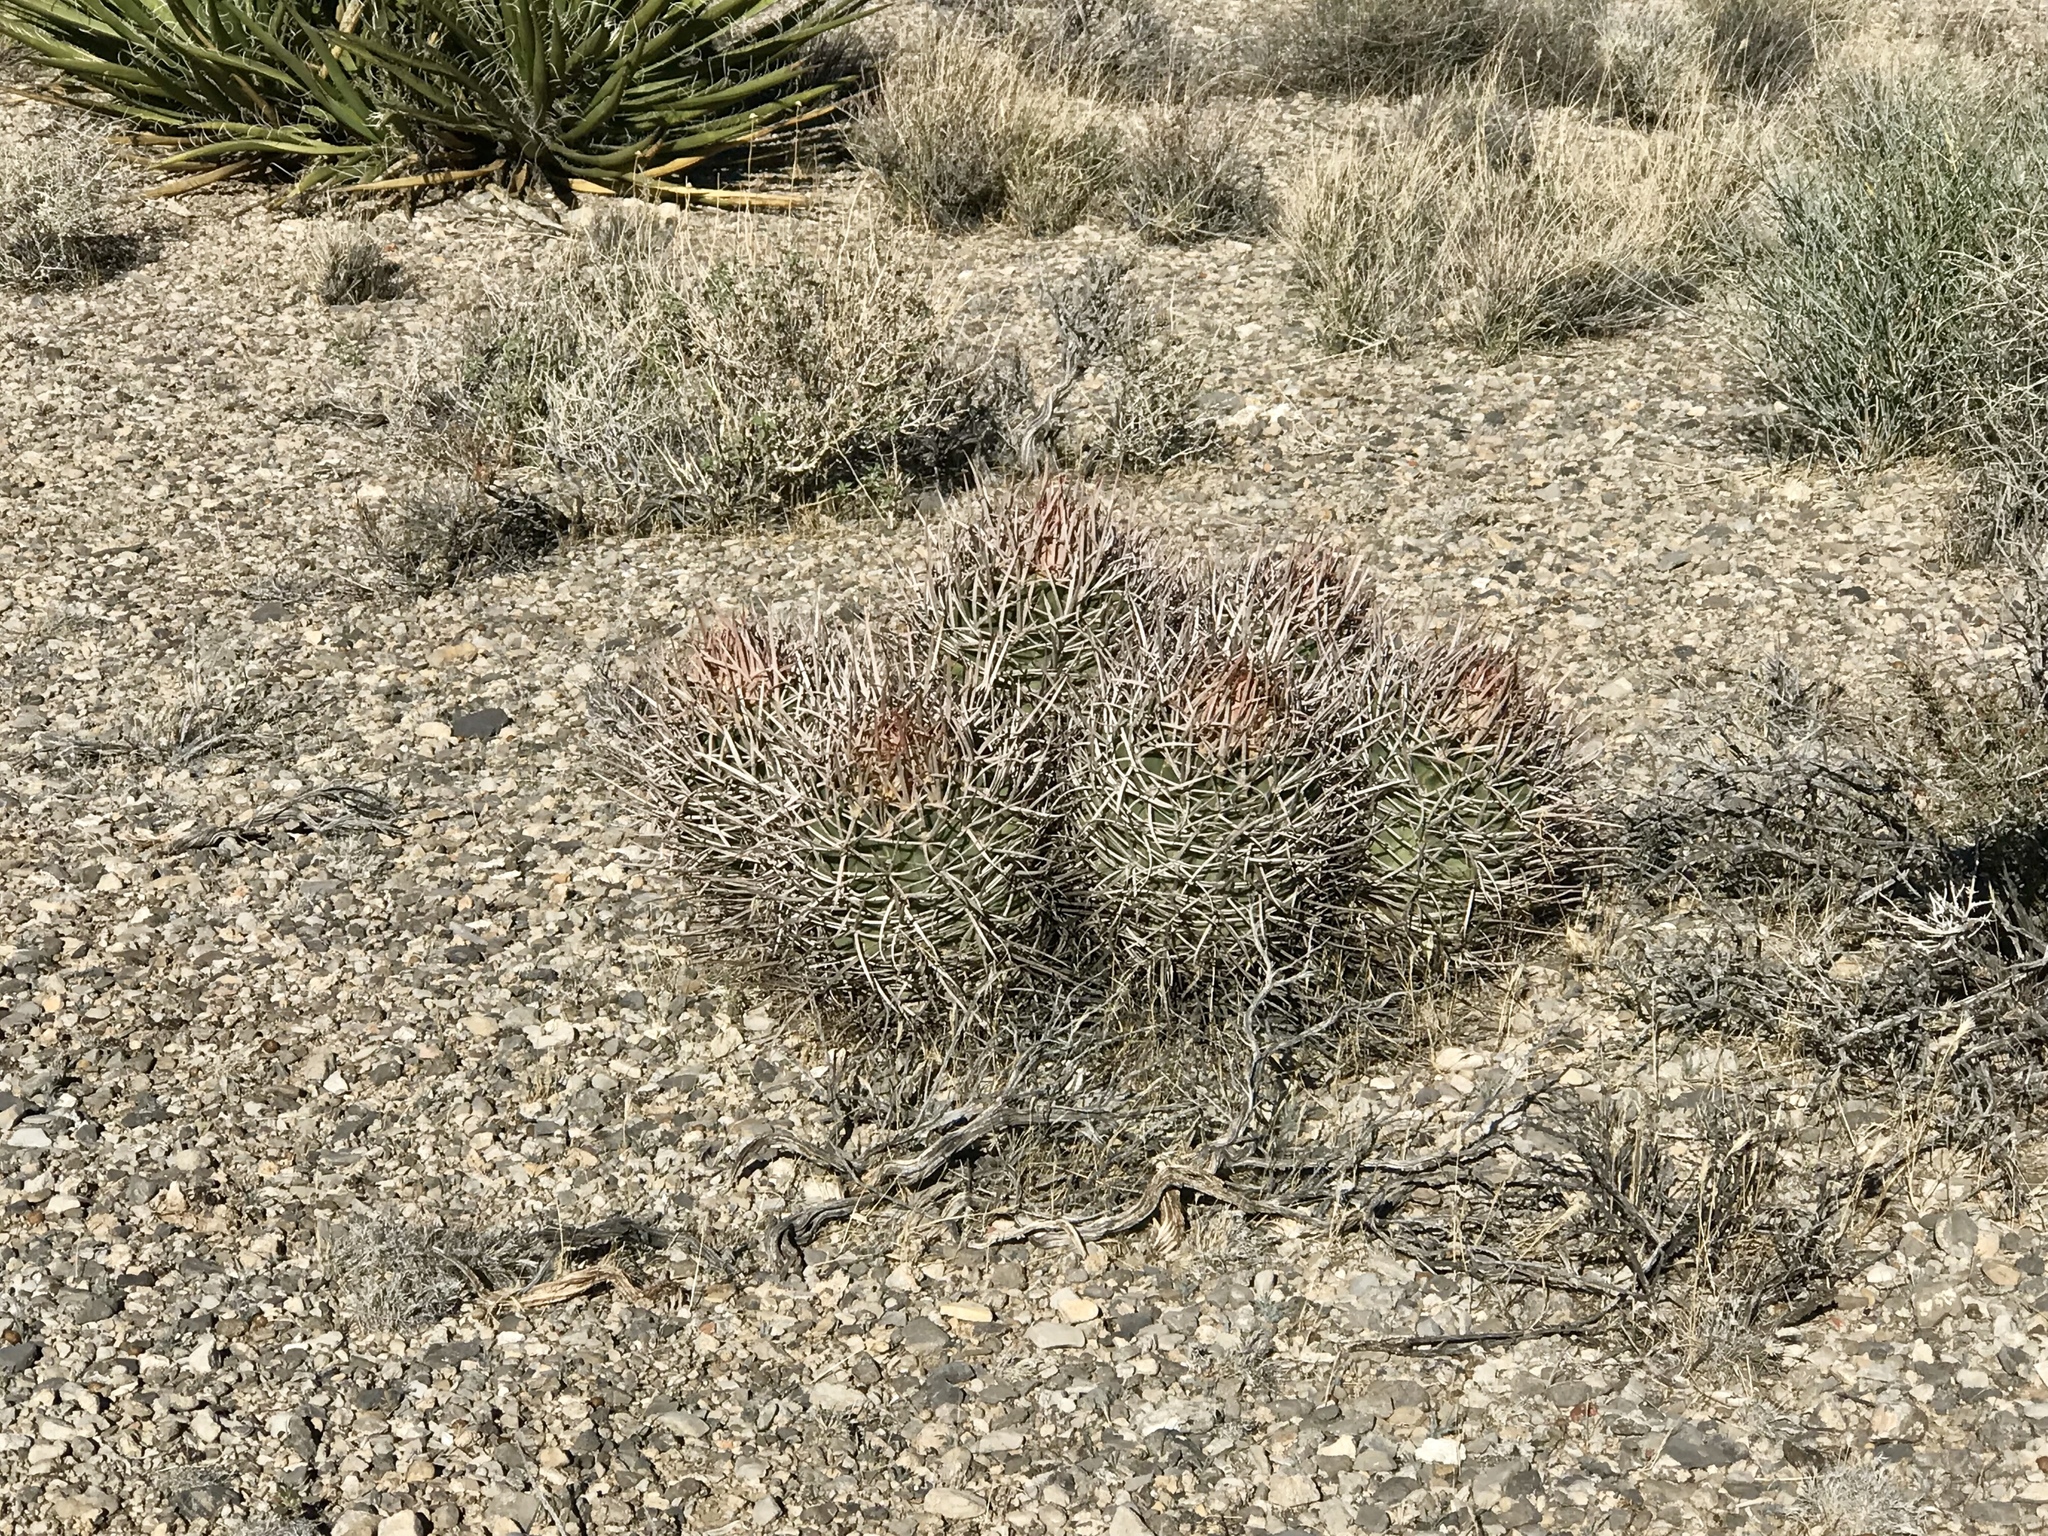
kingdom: Plantae
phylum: Tracheophyta
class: Magnoliopsida
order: Caryophyllales
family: Cactaceae
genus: Echinocactus
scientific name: Echinocactus polycephalus
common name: Cottontop cactus
